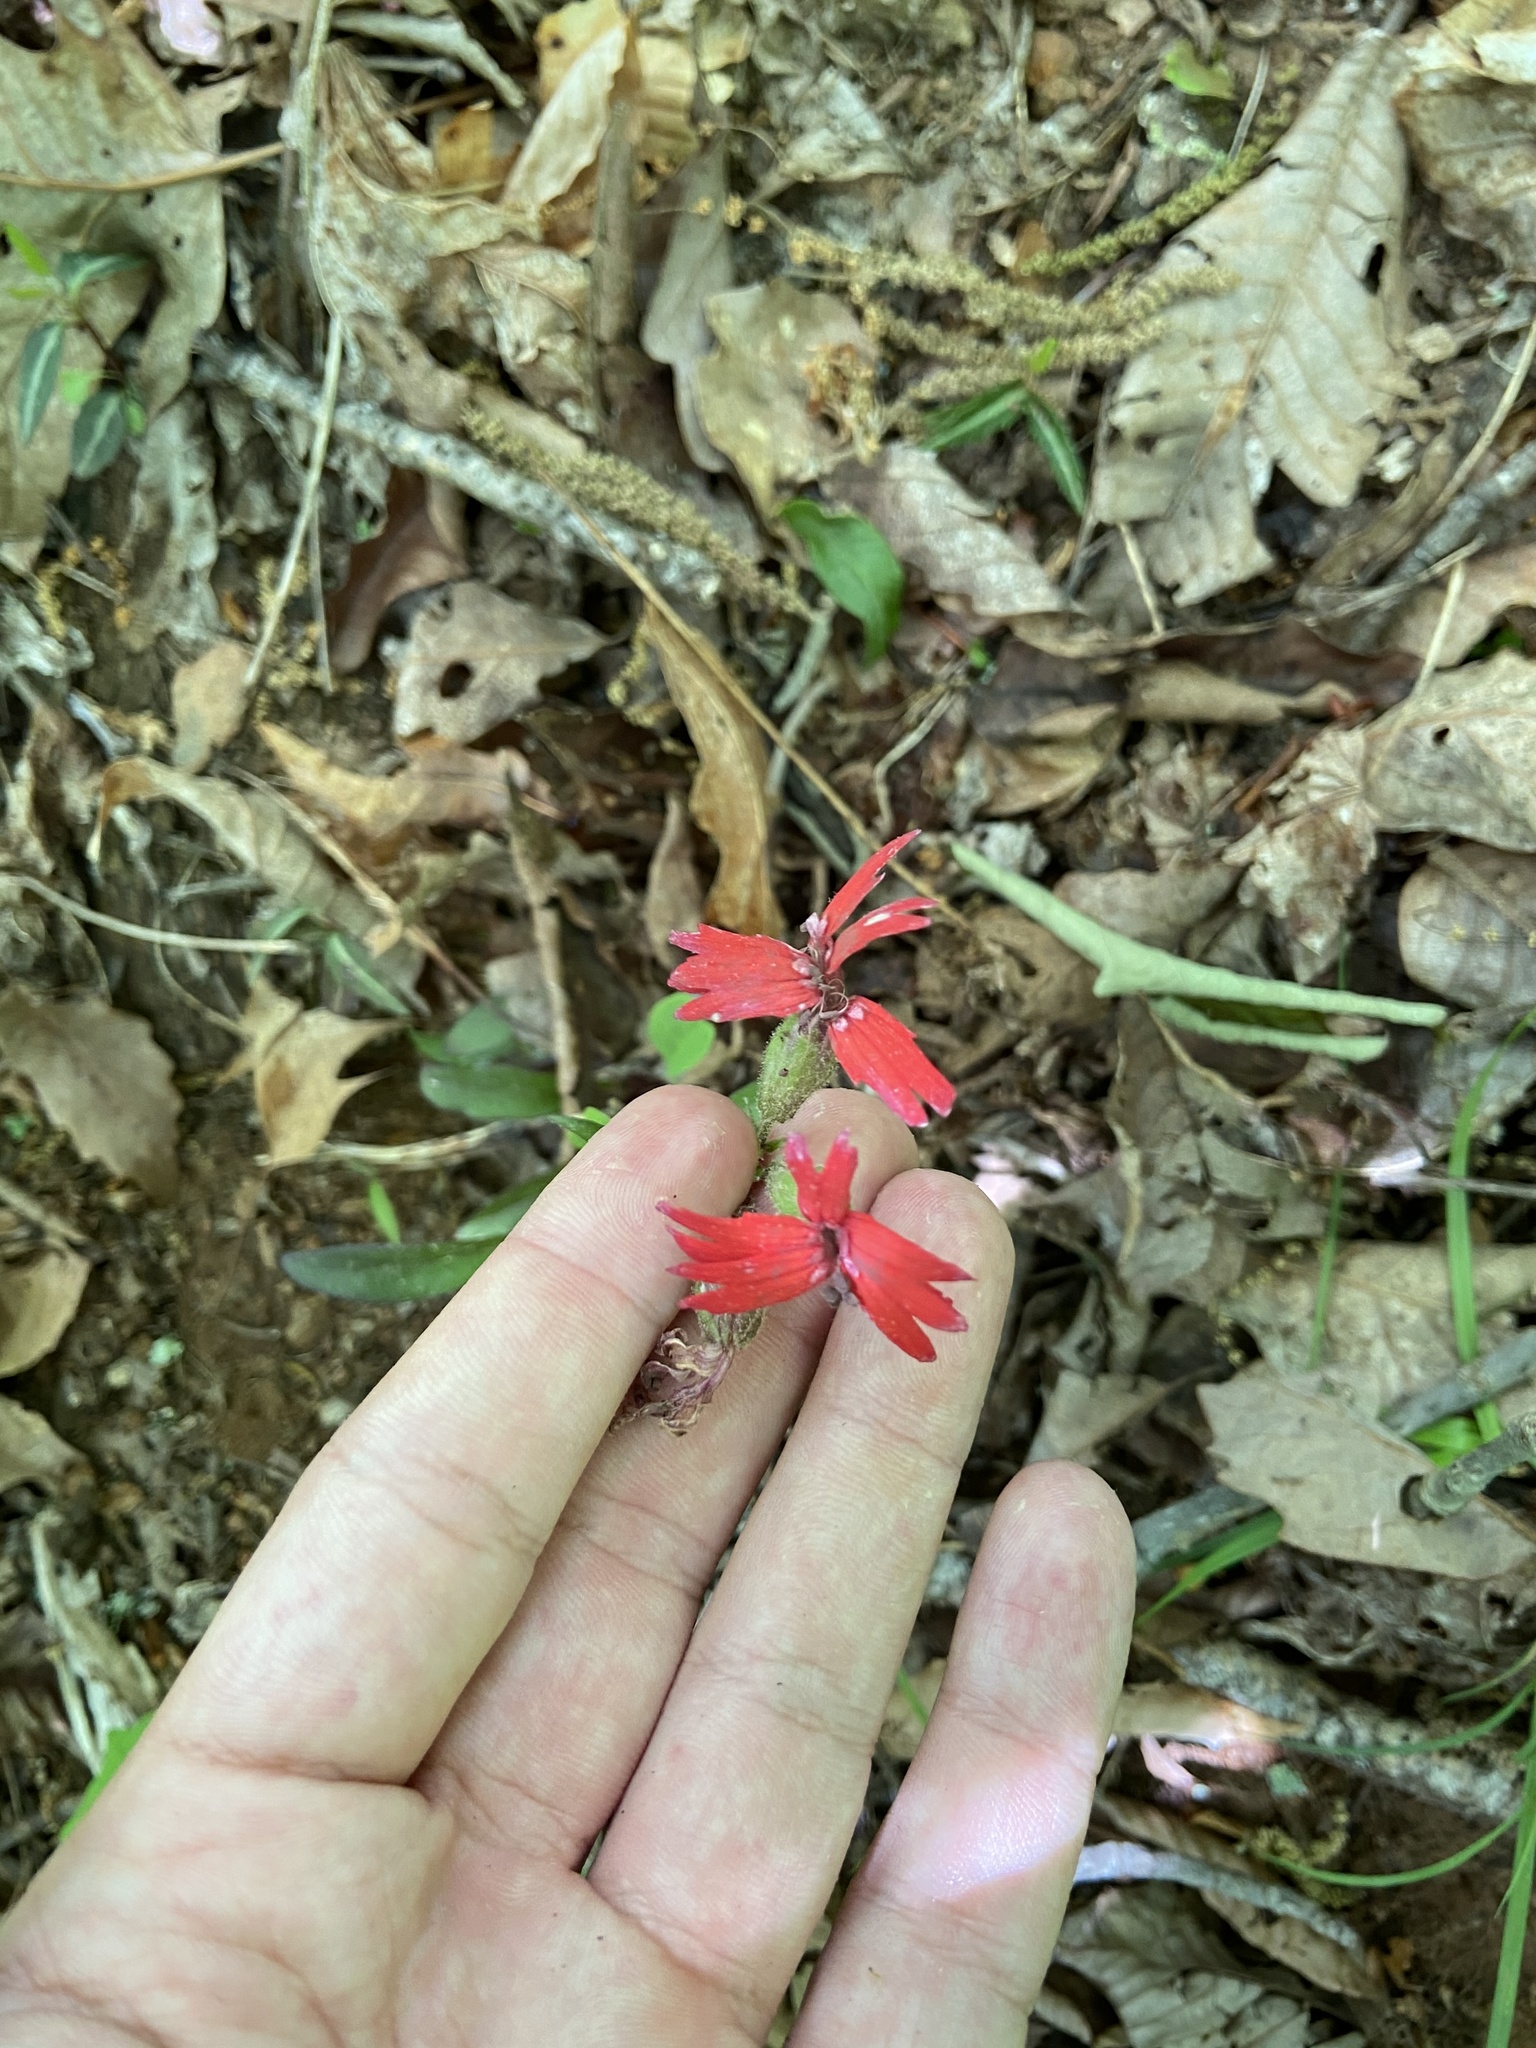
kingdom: Plantae
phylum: Tracheophyta
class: Magnoliopsida
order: Caryophyllales
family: Caryophyllaceae
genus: Silene
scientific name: Silene virginica
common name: Fire-pink
